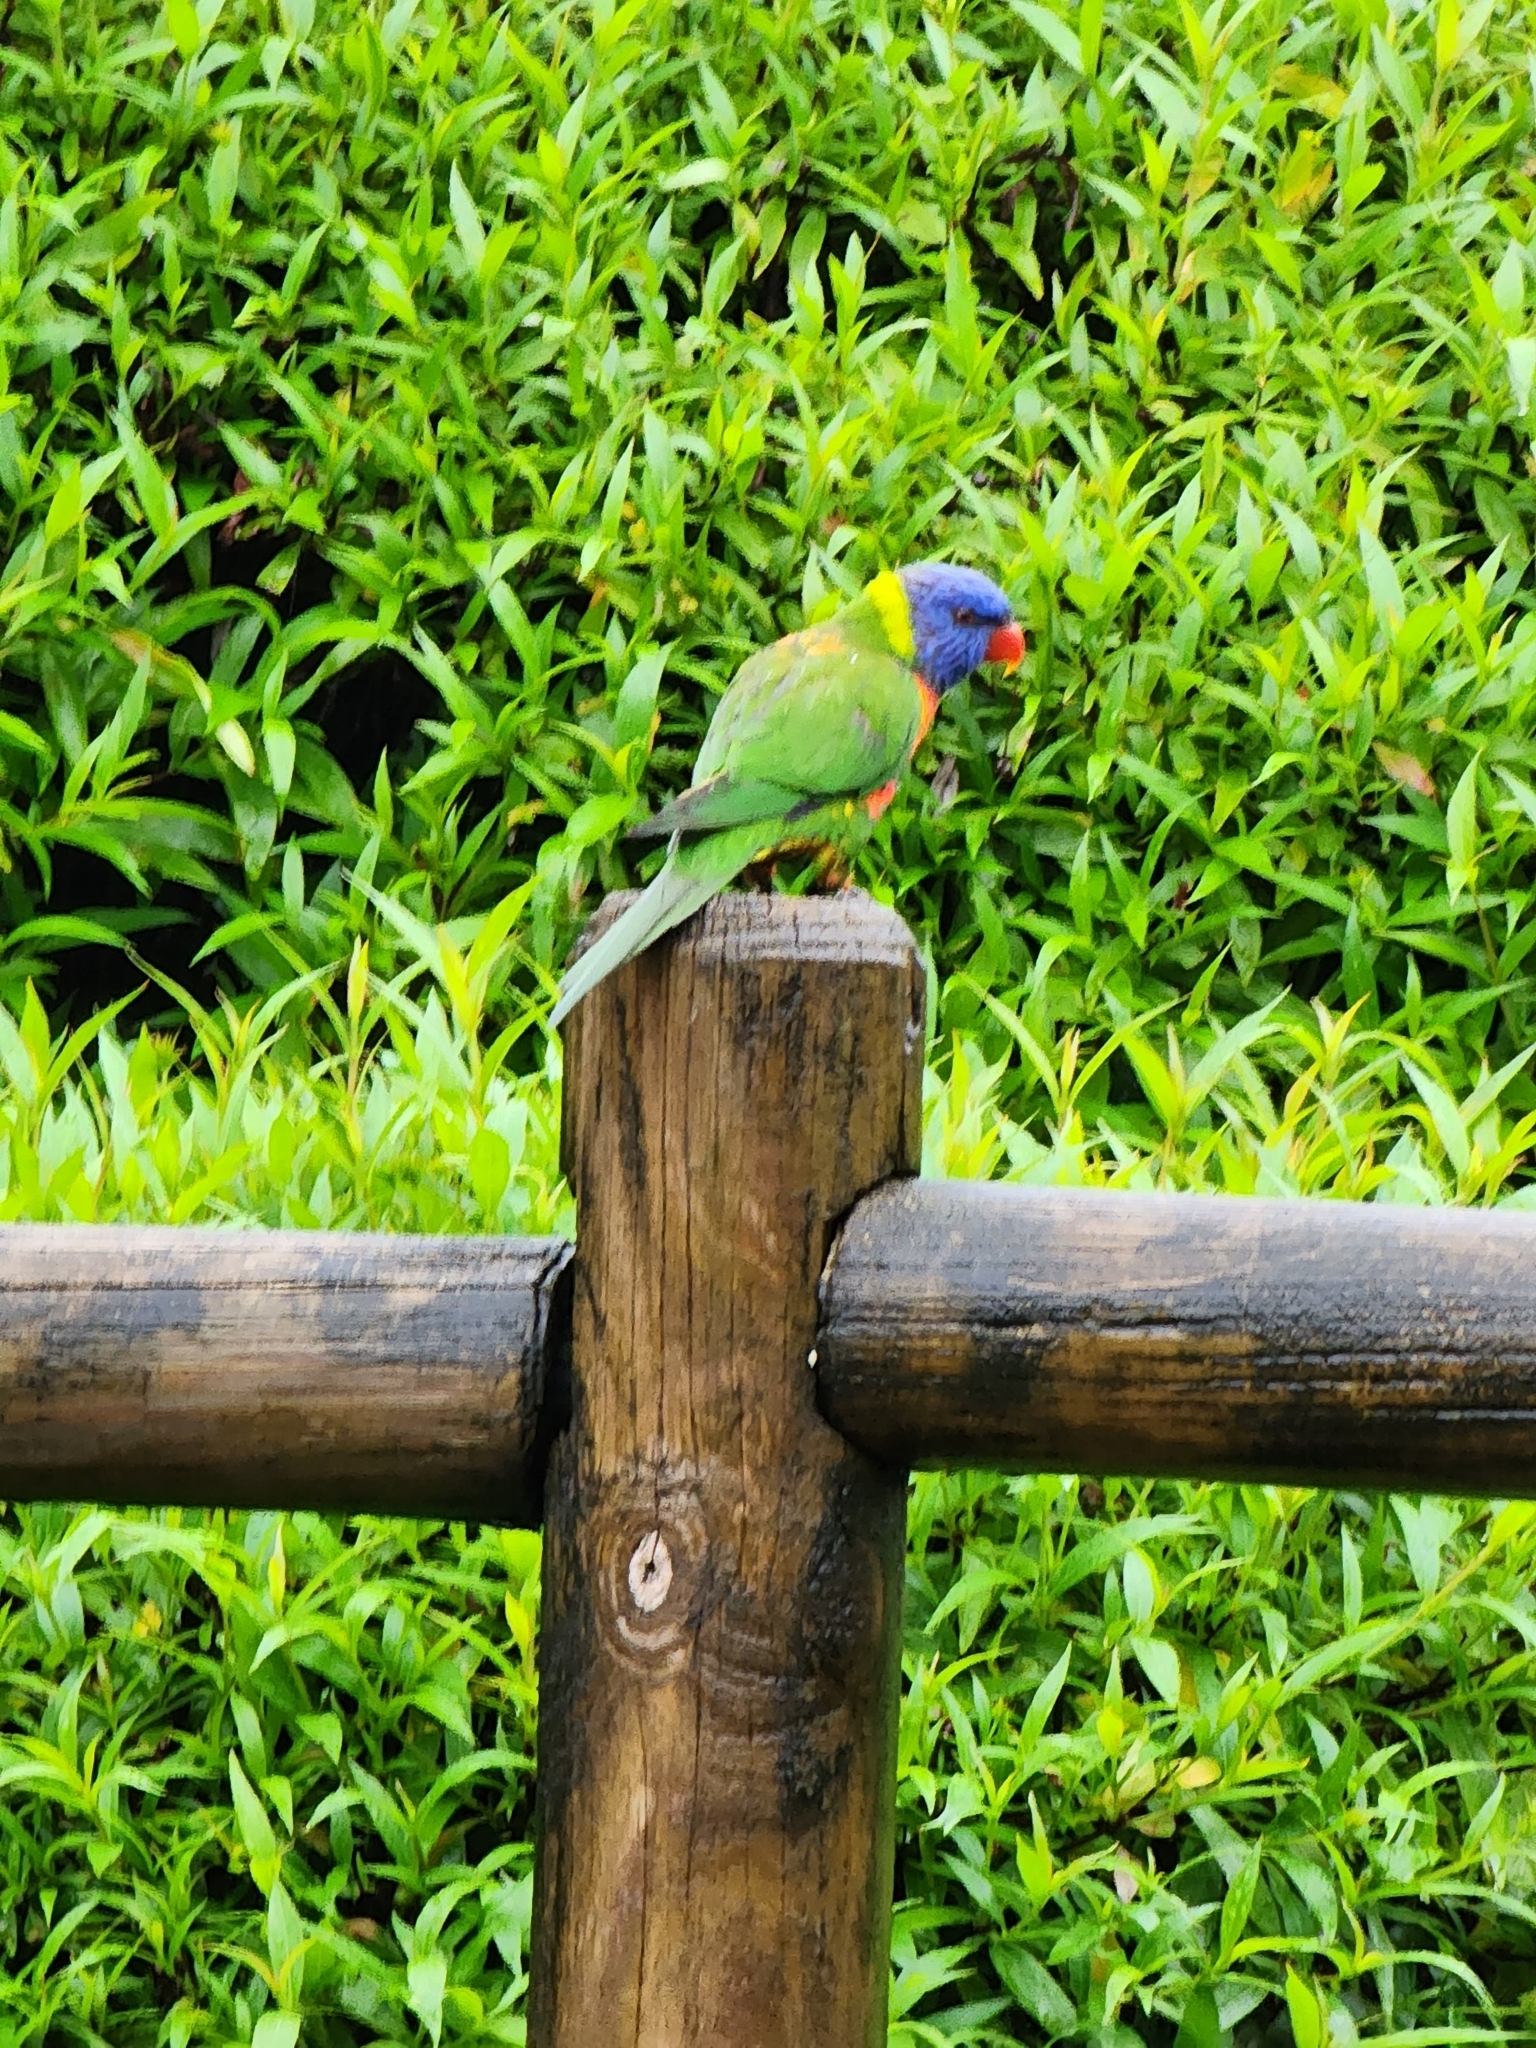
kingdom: Animalia
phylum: Chordata
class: Aves
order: Psittaciformes
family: Psittacidae
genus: Trichoglossus
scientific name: Trichoglossus haematodus
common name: Coconut lorikeet
